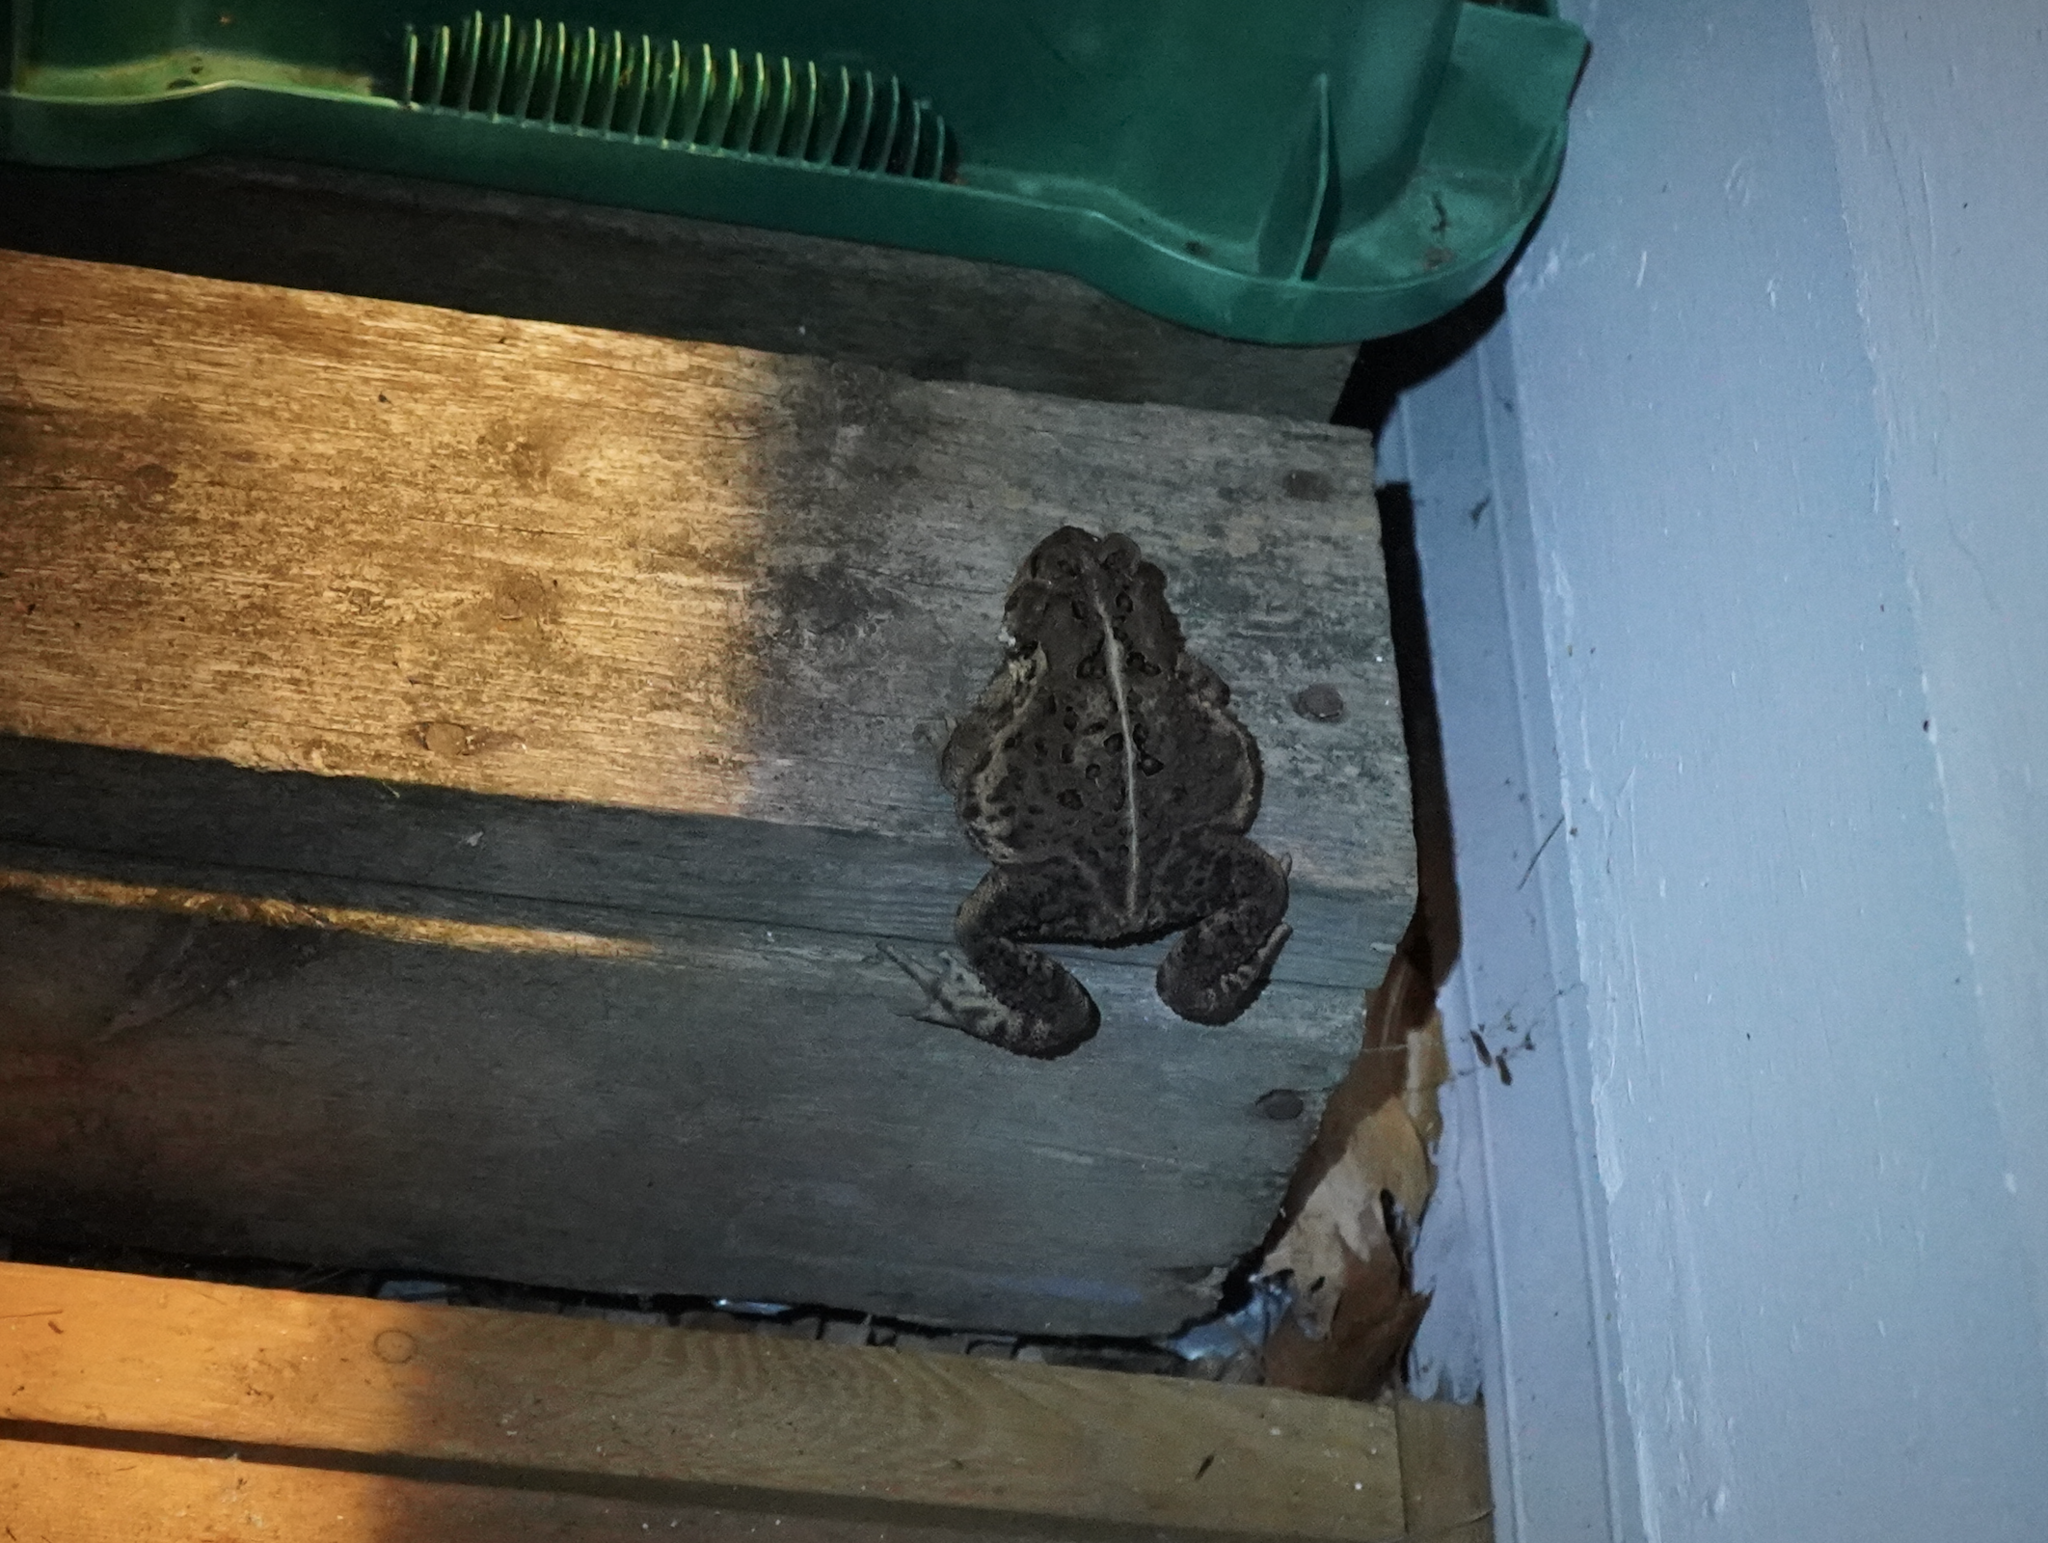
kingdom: Animalia
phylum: Chordata
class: Amphibia
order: Anura
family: Bufonidae
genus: Anaxyrus
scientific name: Anaxyrus americanus
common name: American toad
